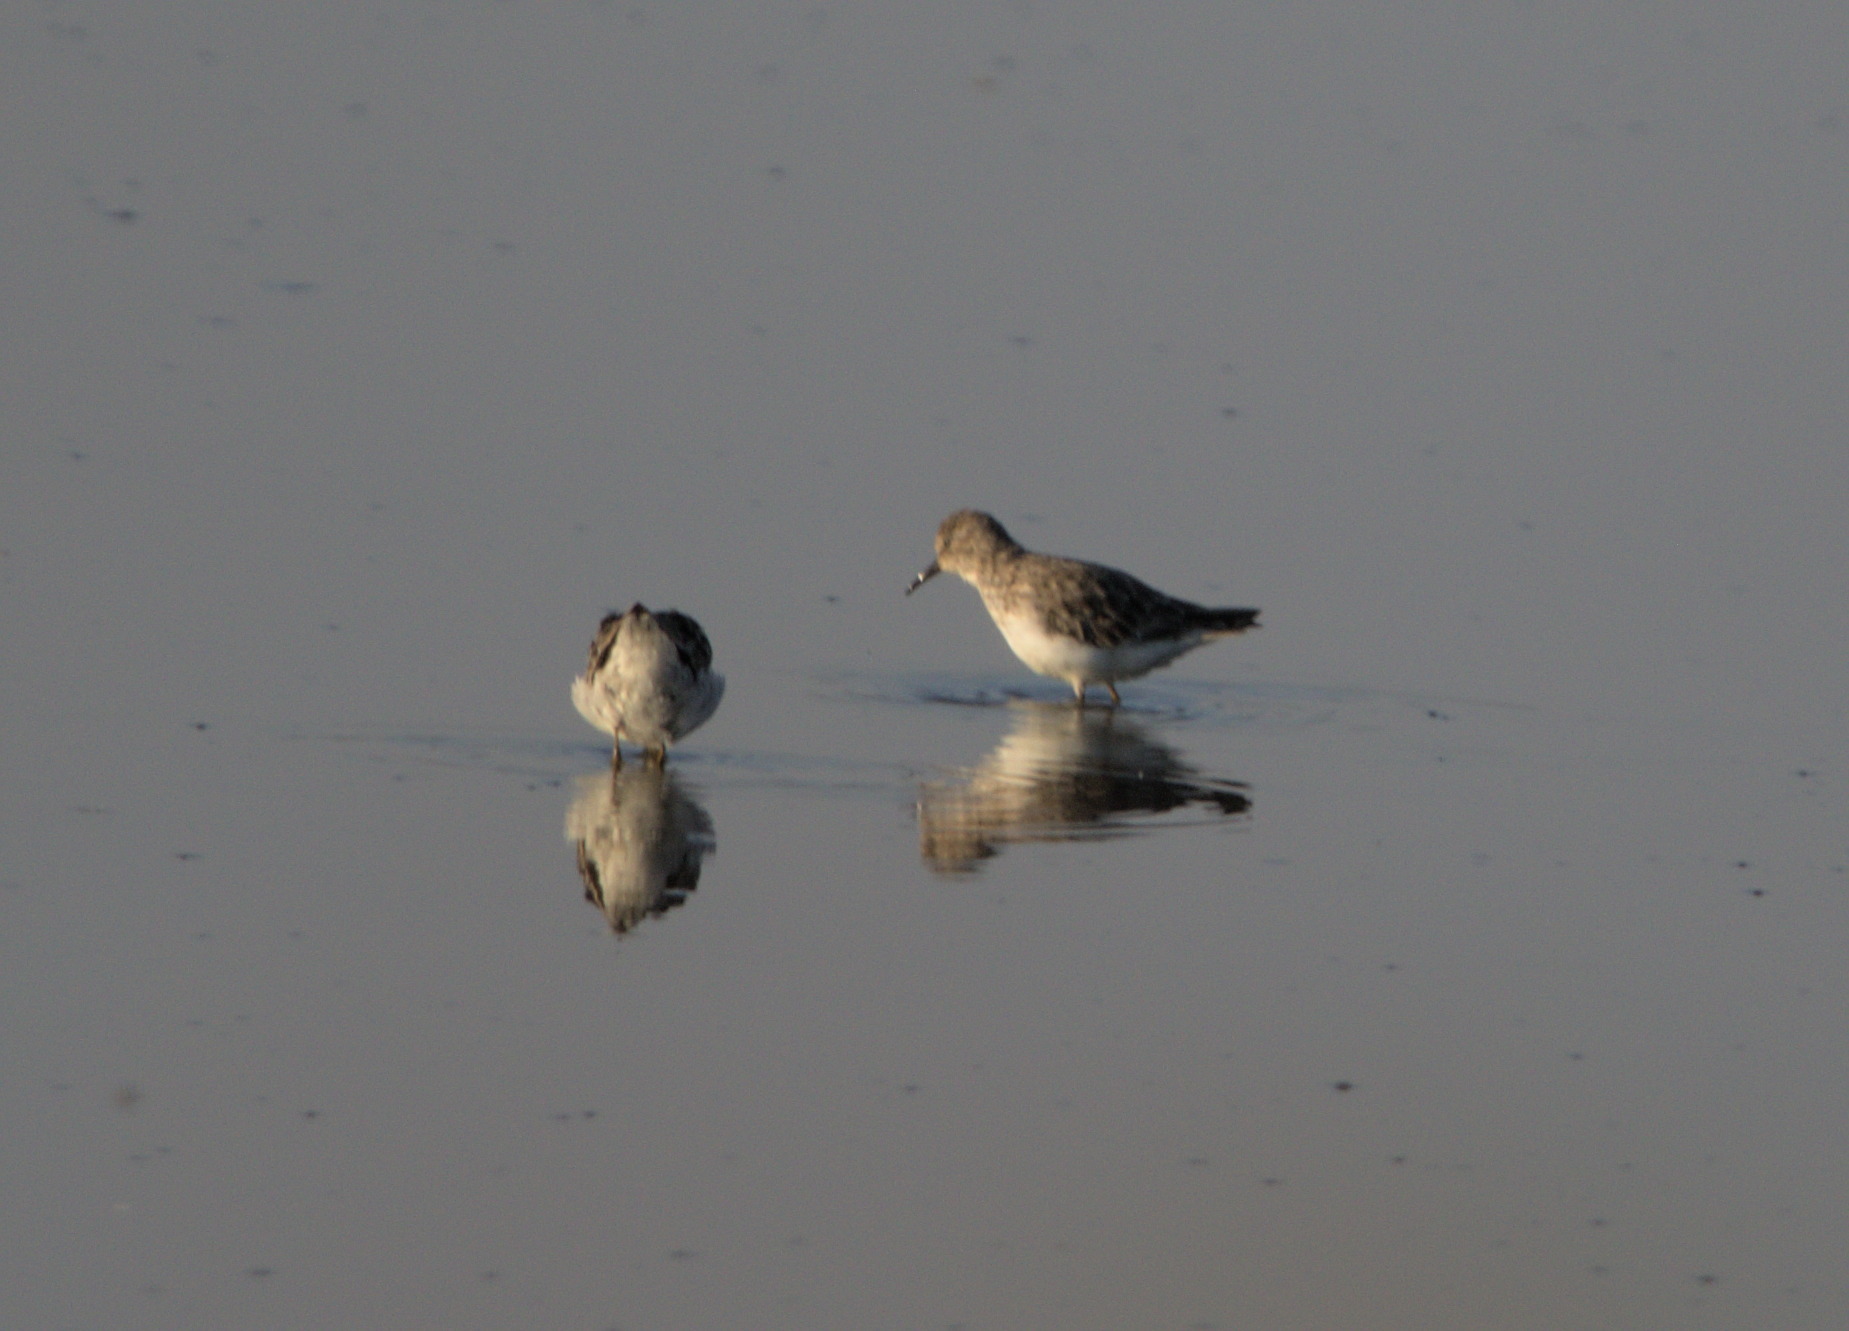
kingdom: Animalia
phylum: Chordata
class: Aves
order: Charadriiformes
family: Scolopacidae
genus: Calidris
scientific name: Calidris minutilla
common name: Least sandpiper
